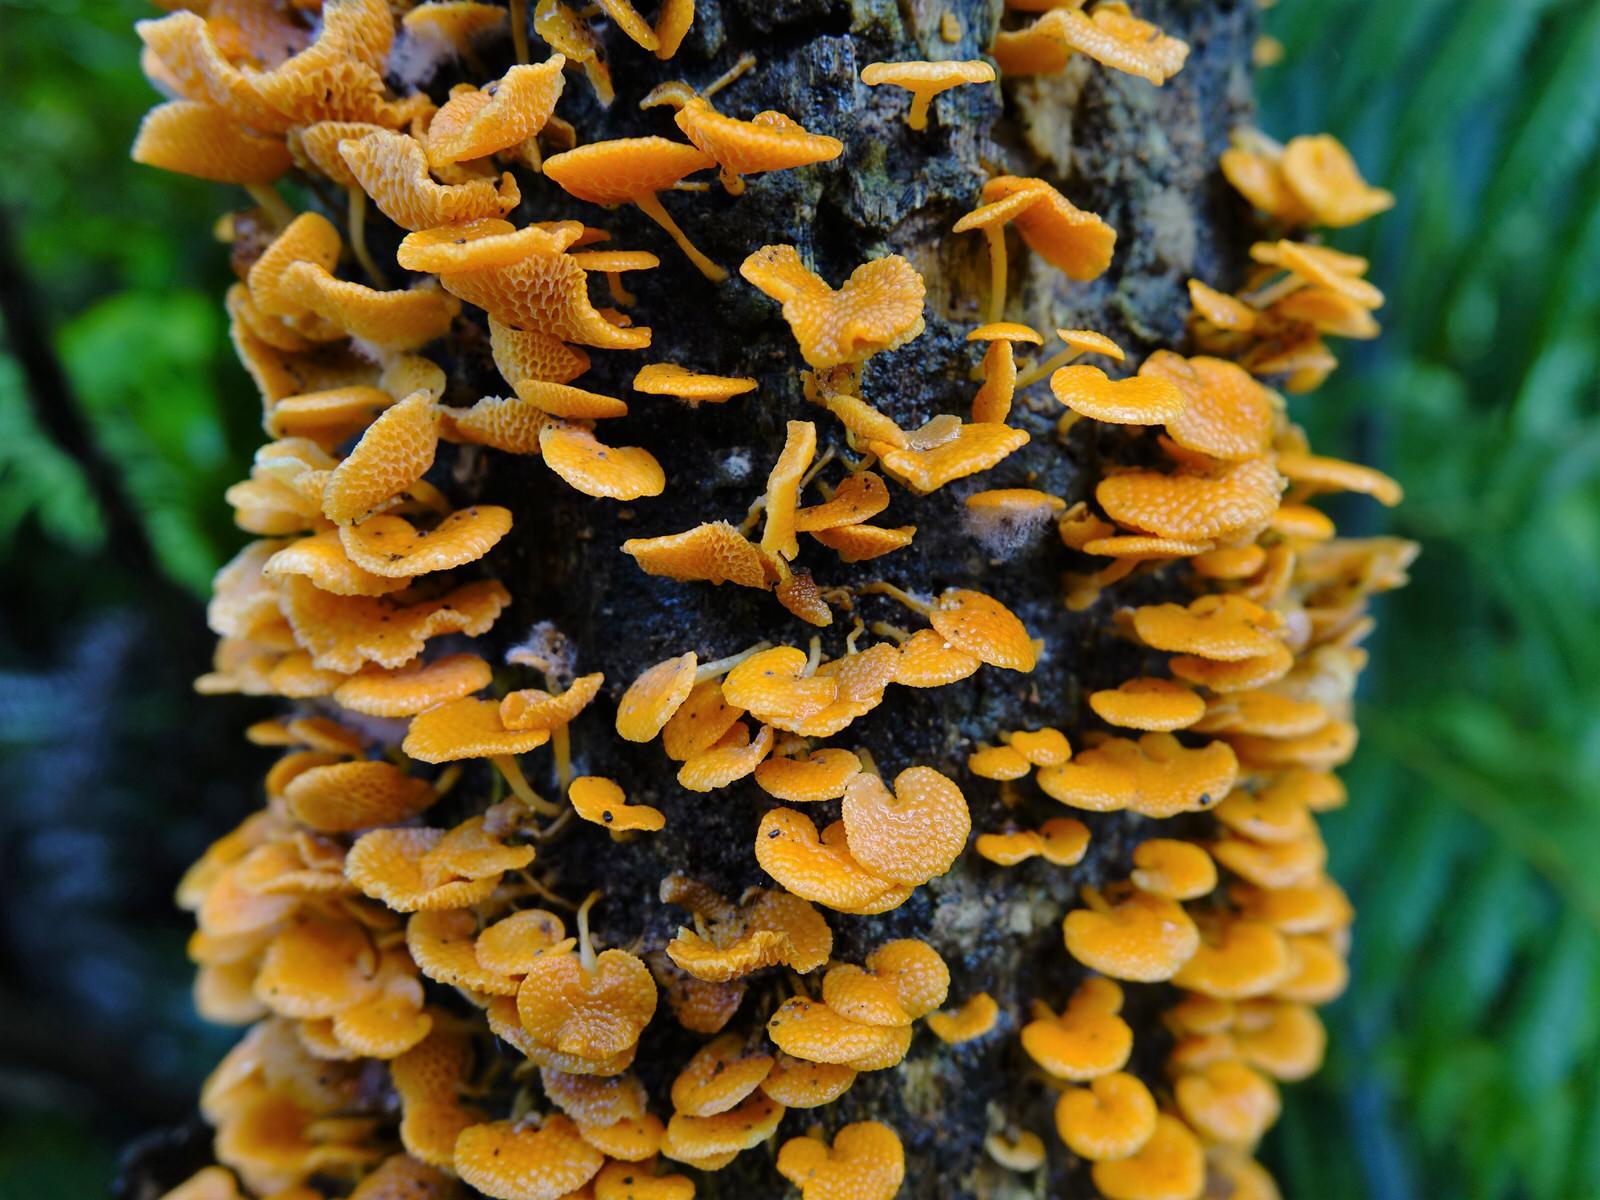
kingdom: Fungi
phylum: Basidiomycota
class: Agaricomycetes
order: Agaricales
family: Mycenaceae
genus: Favolaschia
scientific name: Favolaschia claudopus
